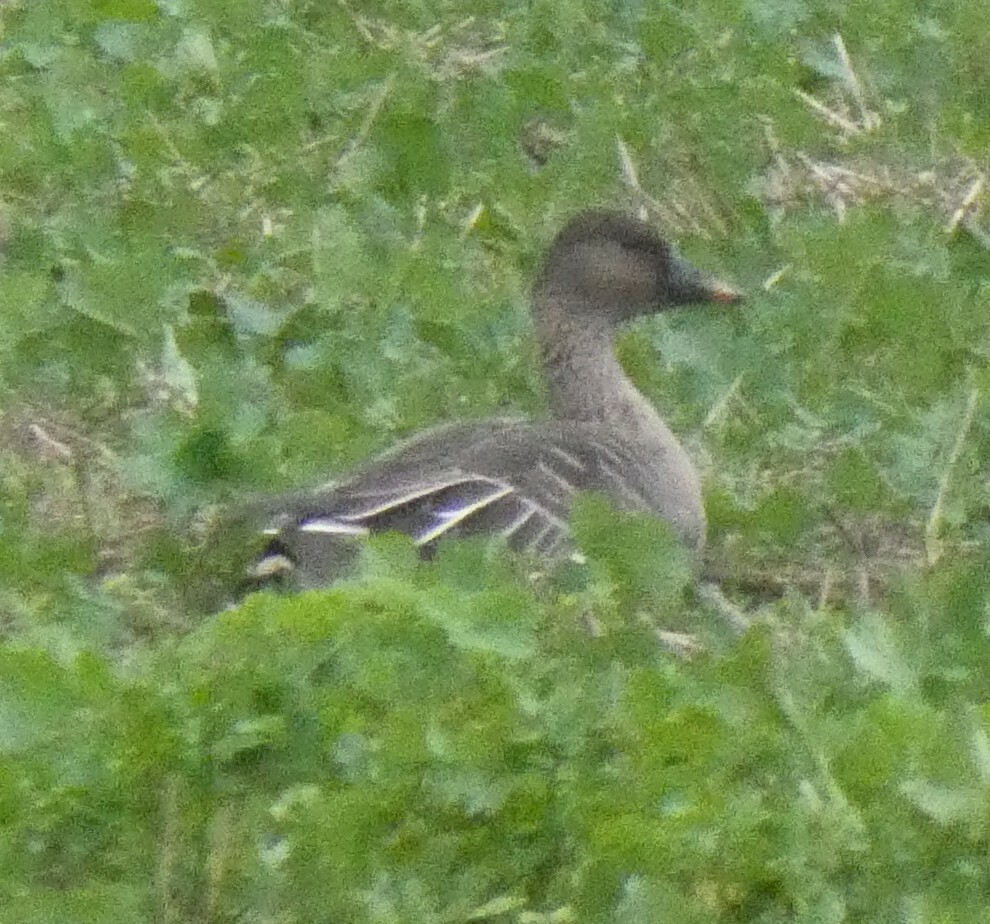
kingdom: Animalia
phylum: Chordata
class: Aves
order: Anseriformes
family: Anatidae
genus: Anser
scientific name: Anser serrirostris
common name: Tundra bean goose
